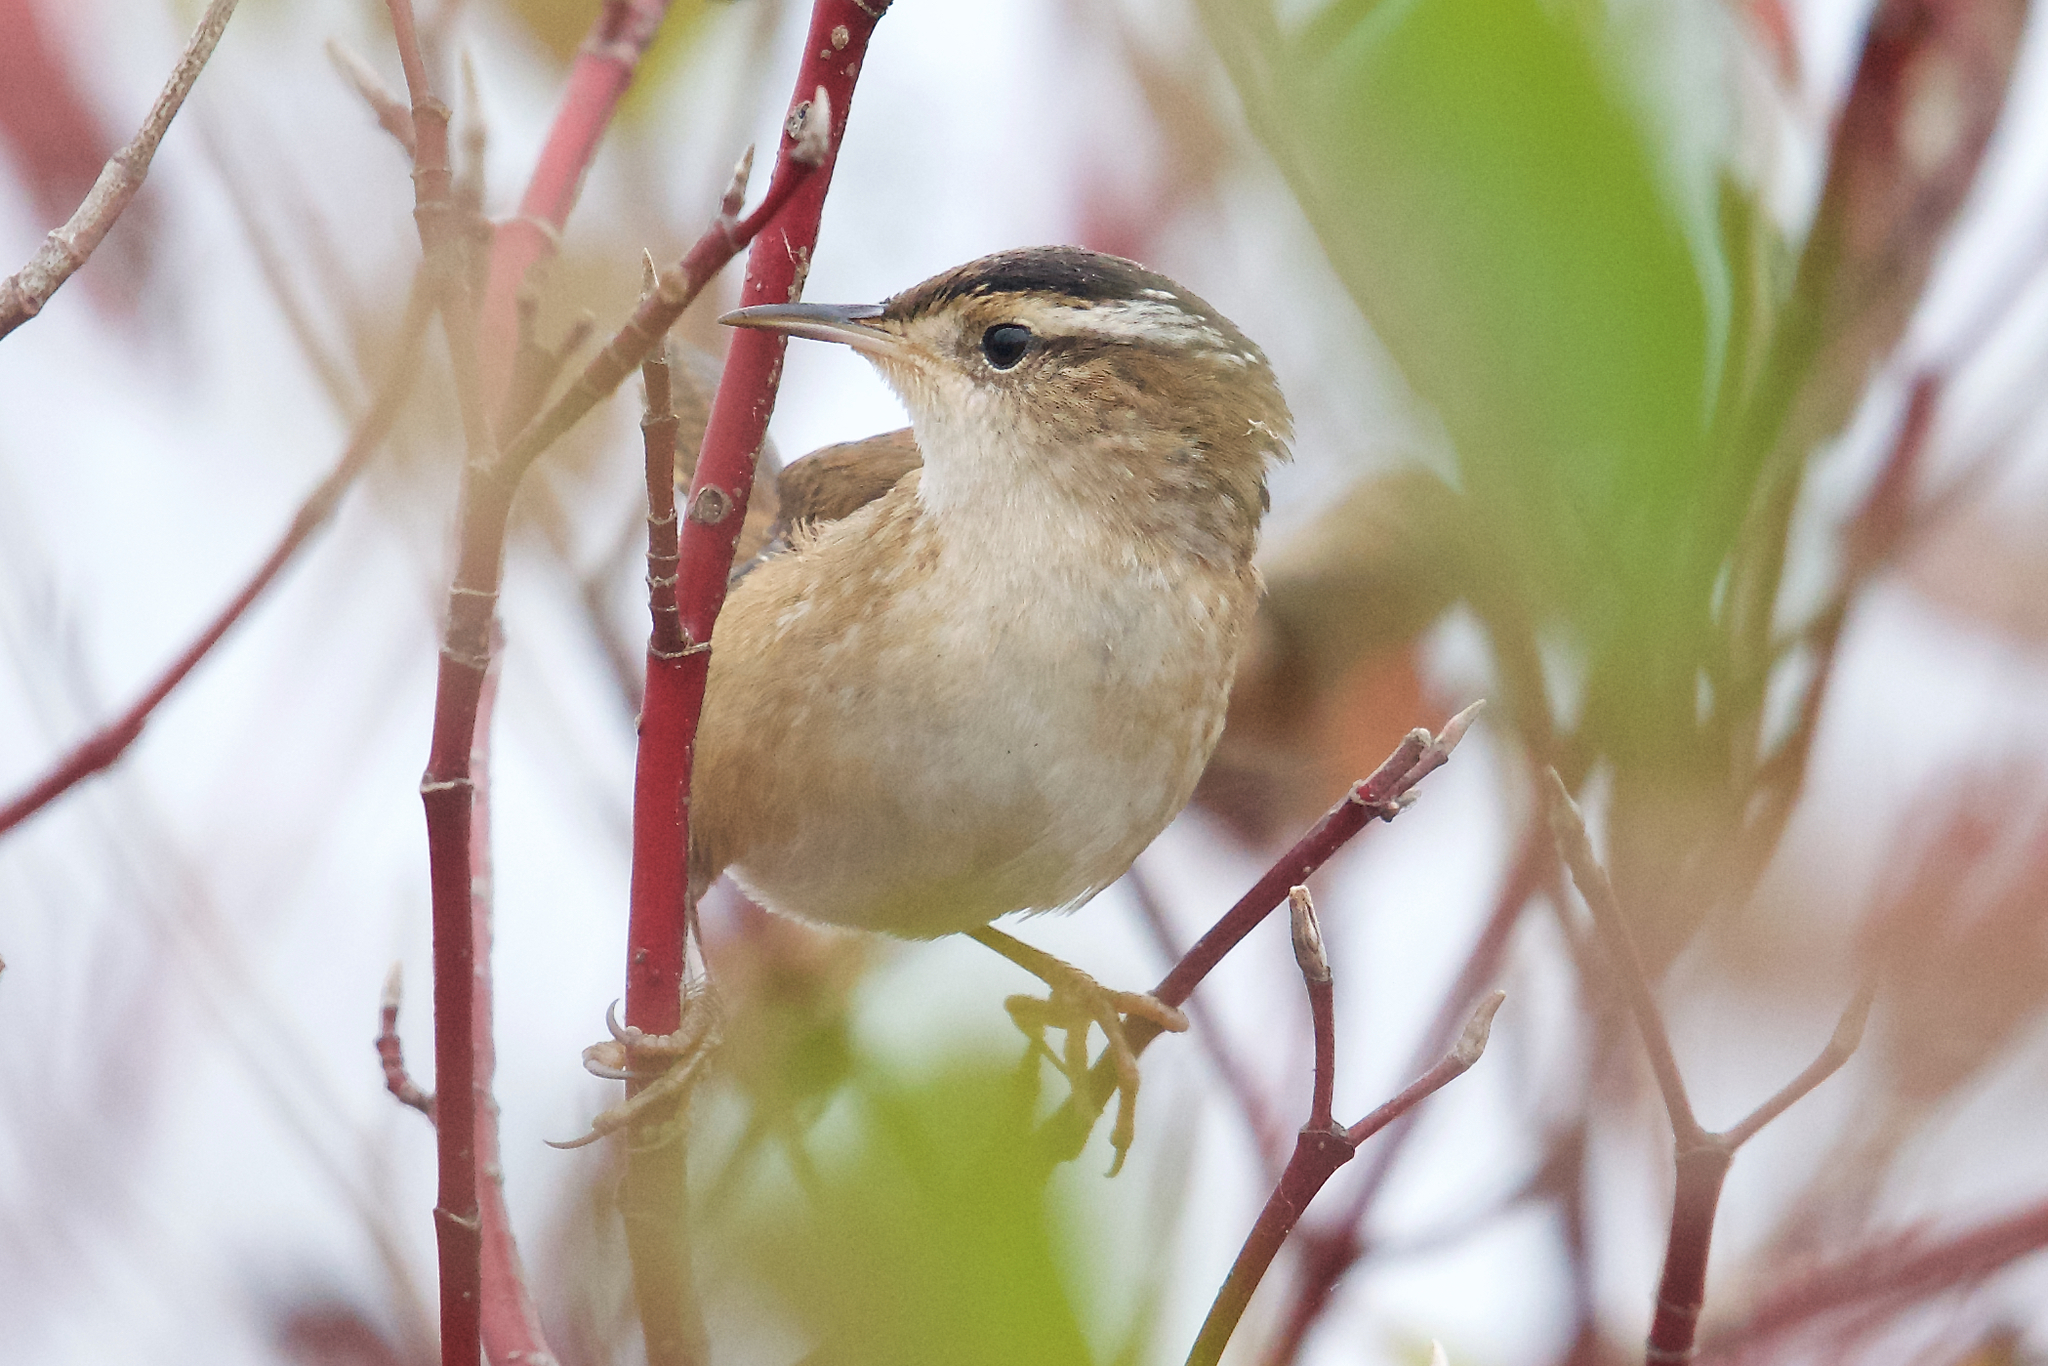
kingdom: Animalia
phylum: Chordata
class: Aves
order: Passeriformes
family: Troglodytidae
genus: Cistothorus
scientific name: Cistothorus palustris
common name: Marsh wren
